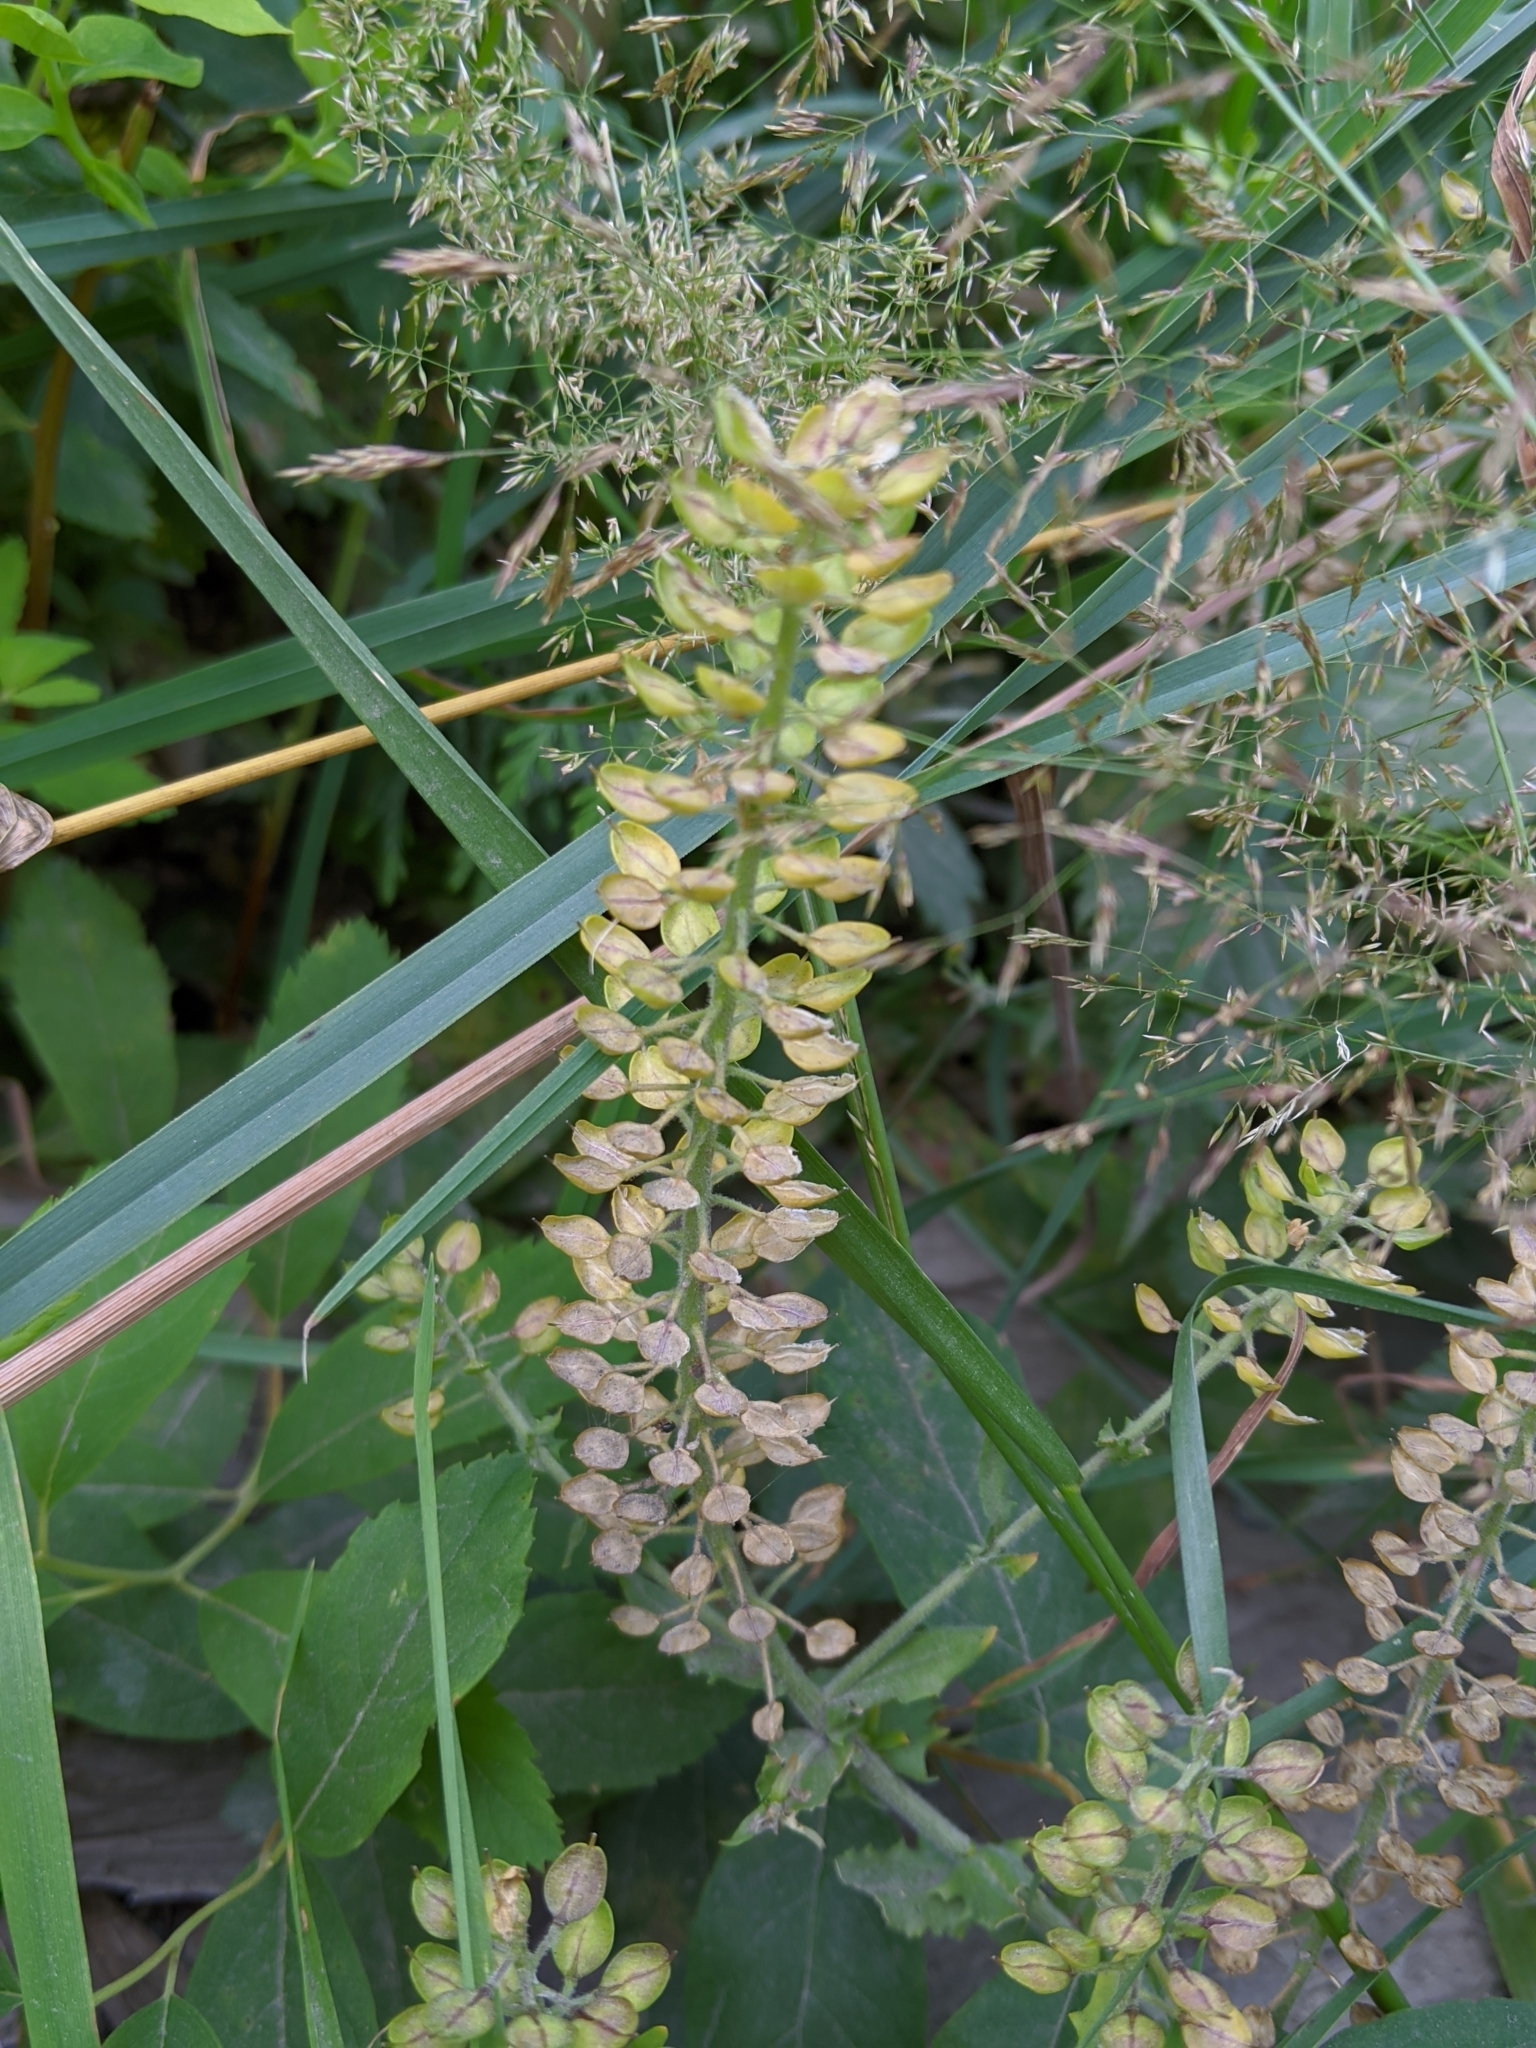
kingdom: Plantae
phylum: Tracheophyta
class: Magnoliopsida
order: Brassicales
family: Brassicaceae
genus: Lepidium
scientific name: Lepidium heterophyllum
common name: Smith's pepperwort
